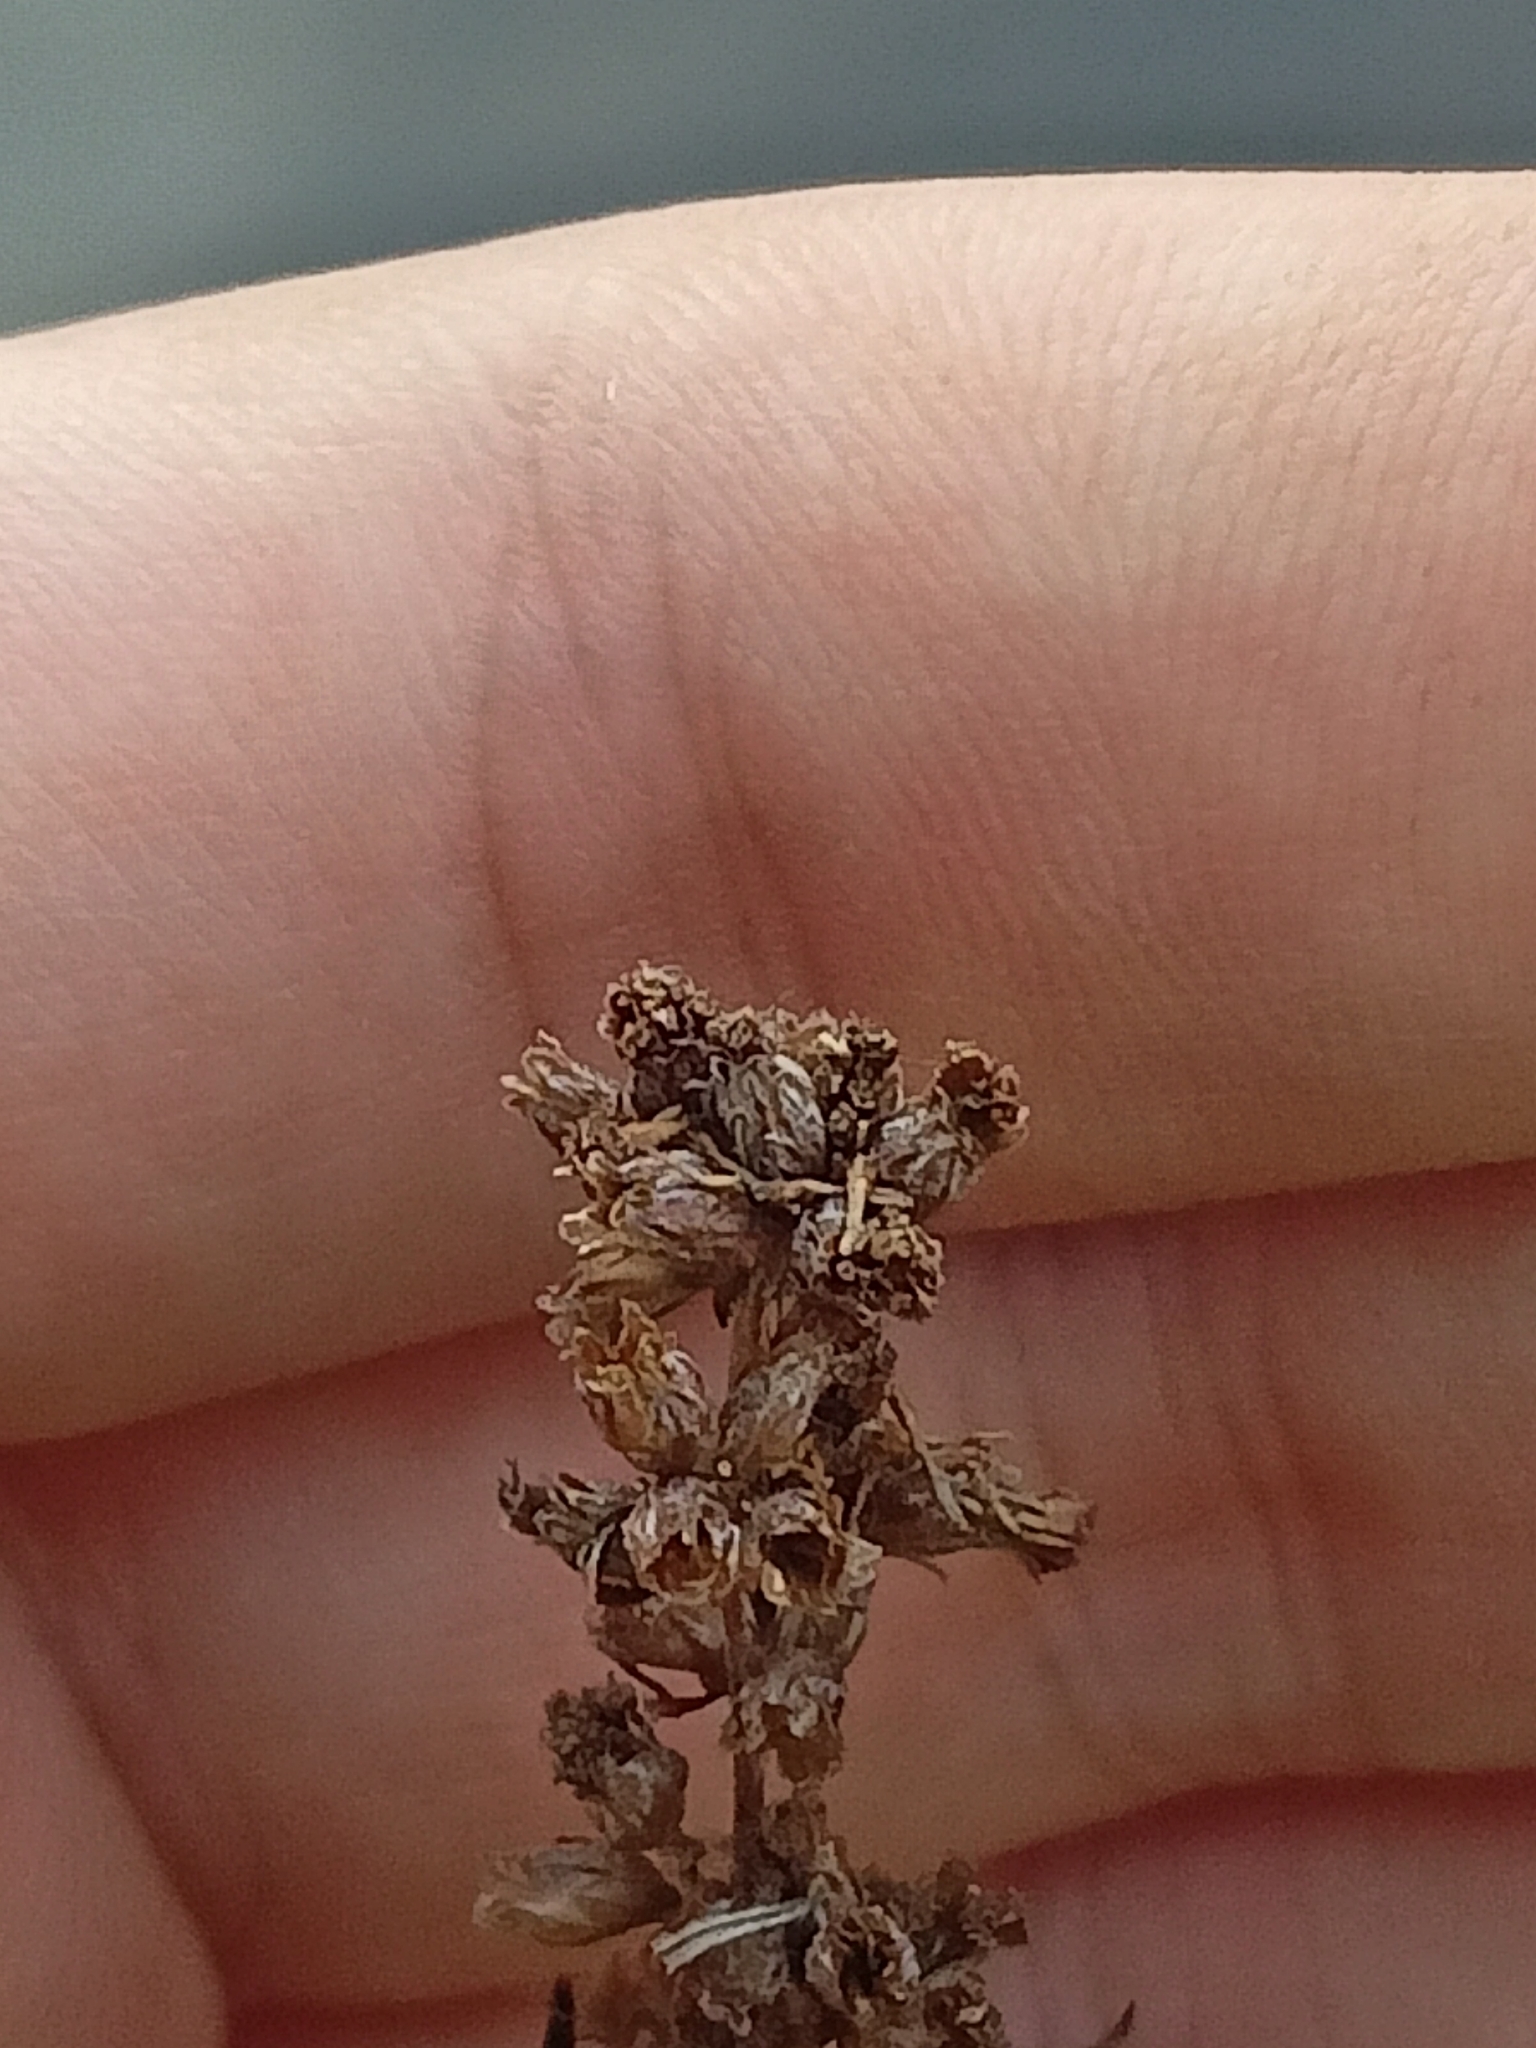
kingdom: Plantae
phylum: Tracheophyta
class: Magnoliopsida
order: Asterales
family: Asteraceae
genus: Artemisia
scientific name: Artemisia vulgaris
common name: Mugwort
